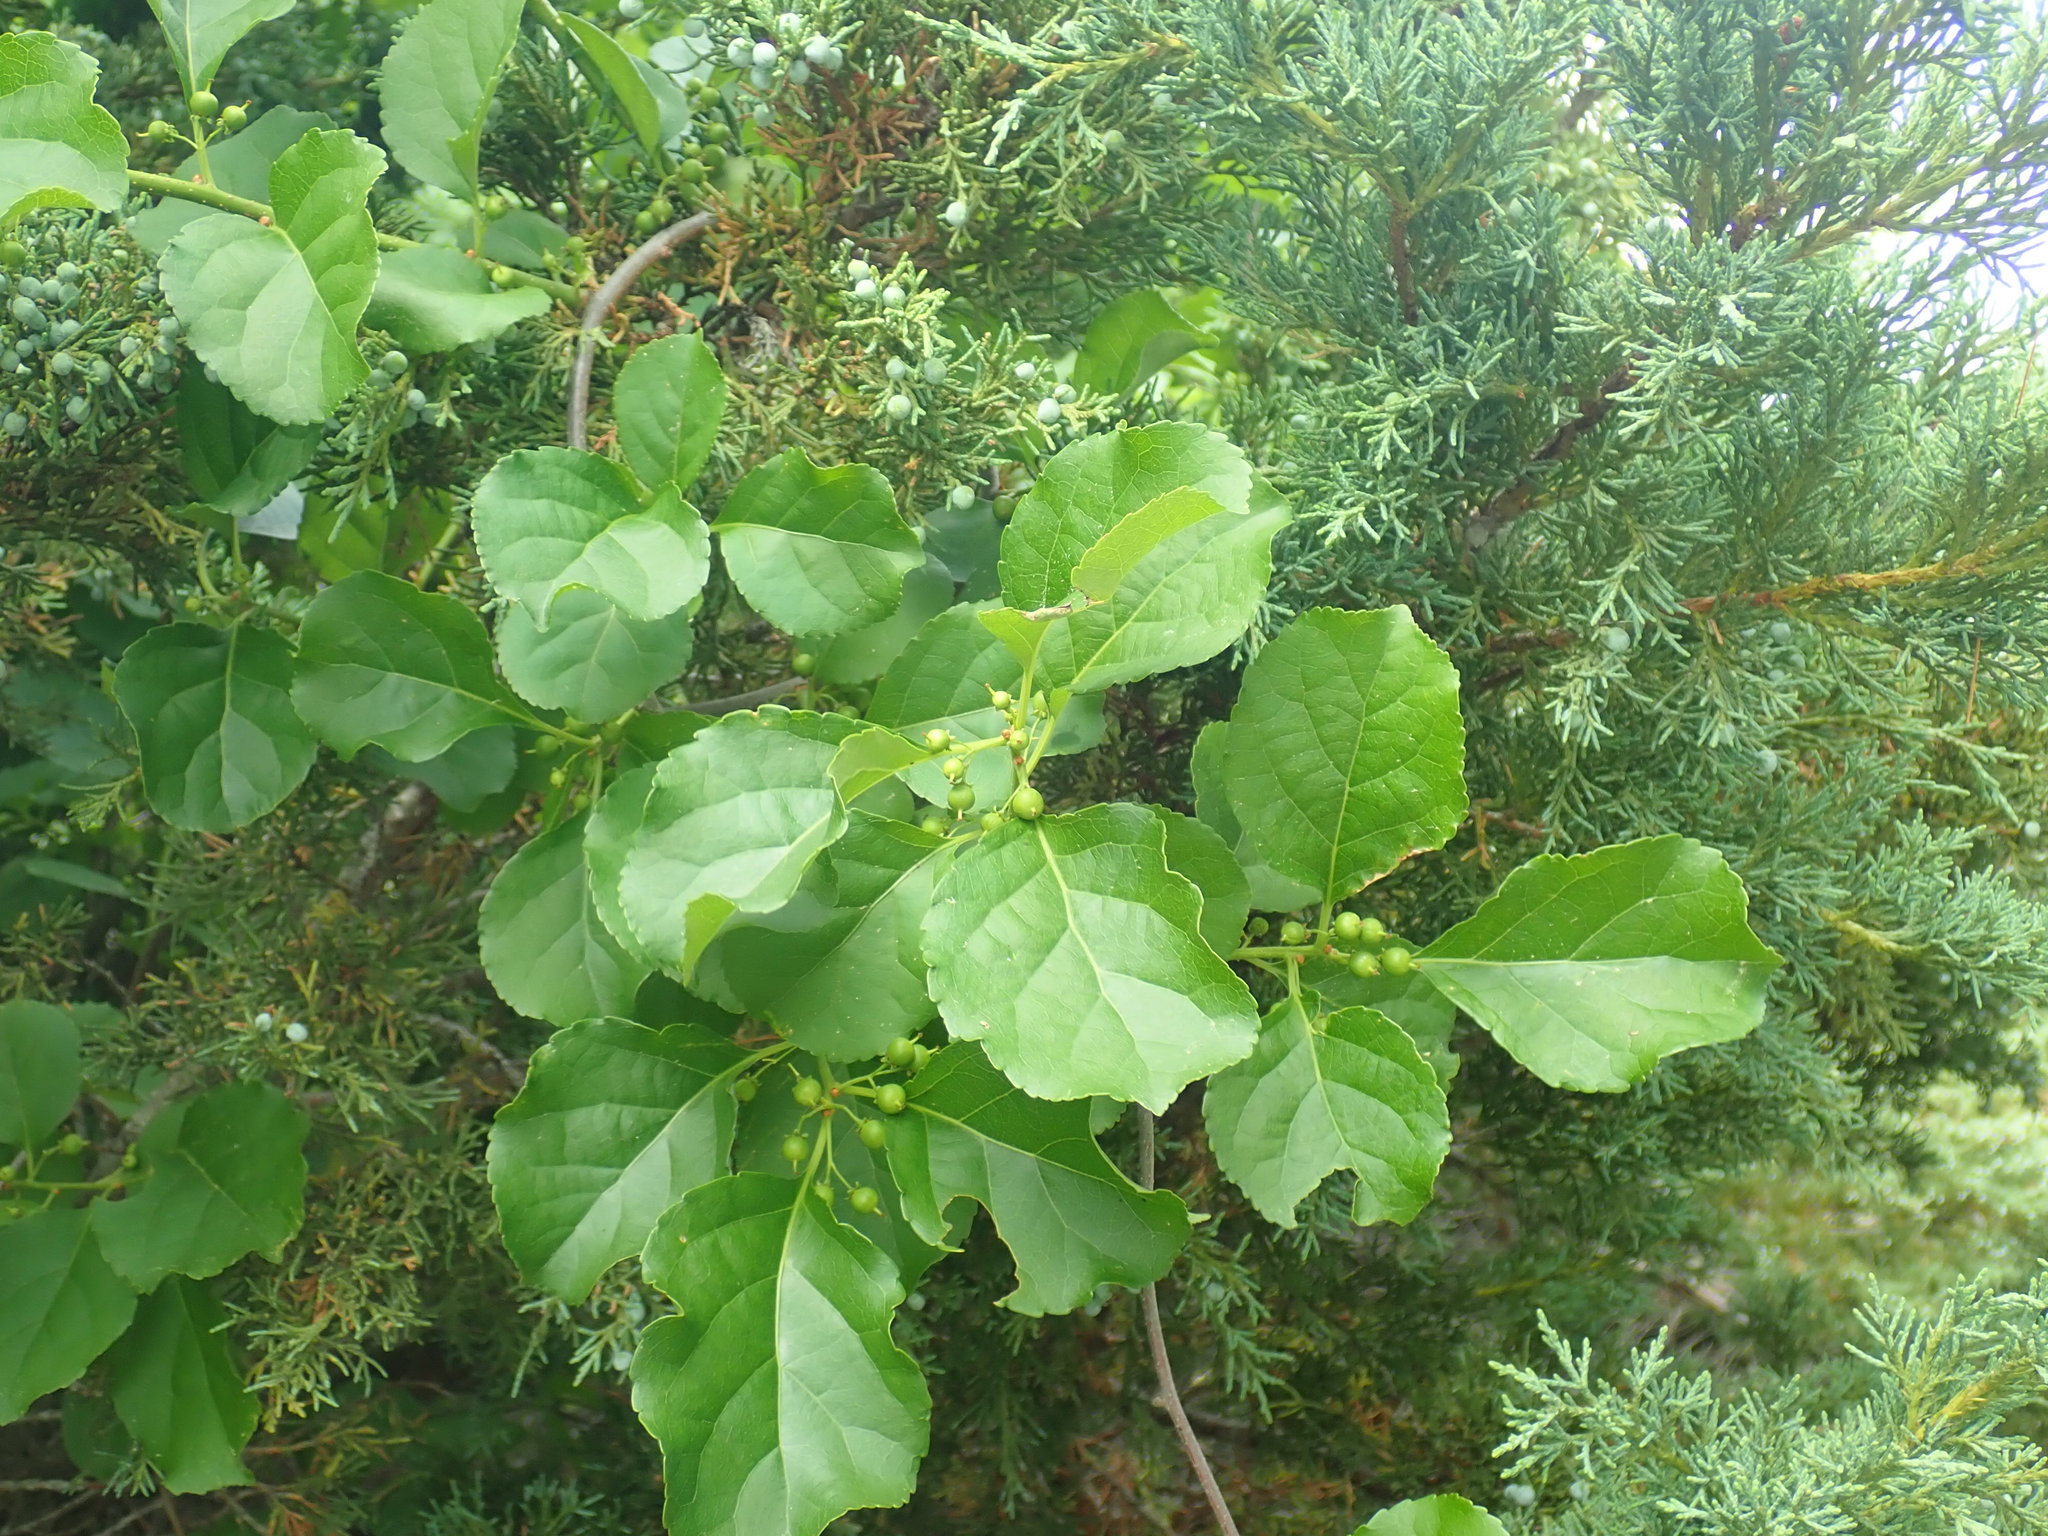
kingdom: Plantae
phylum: Tracheophyta
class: Magnoliopsida
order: Celastrales
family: Celastraceae
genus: Celastrus
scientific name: Celastrus orbiculatus
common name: Oriental bittersweet
